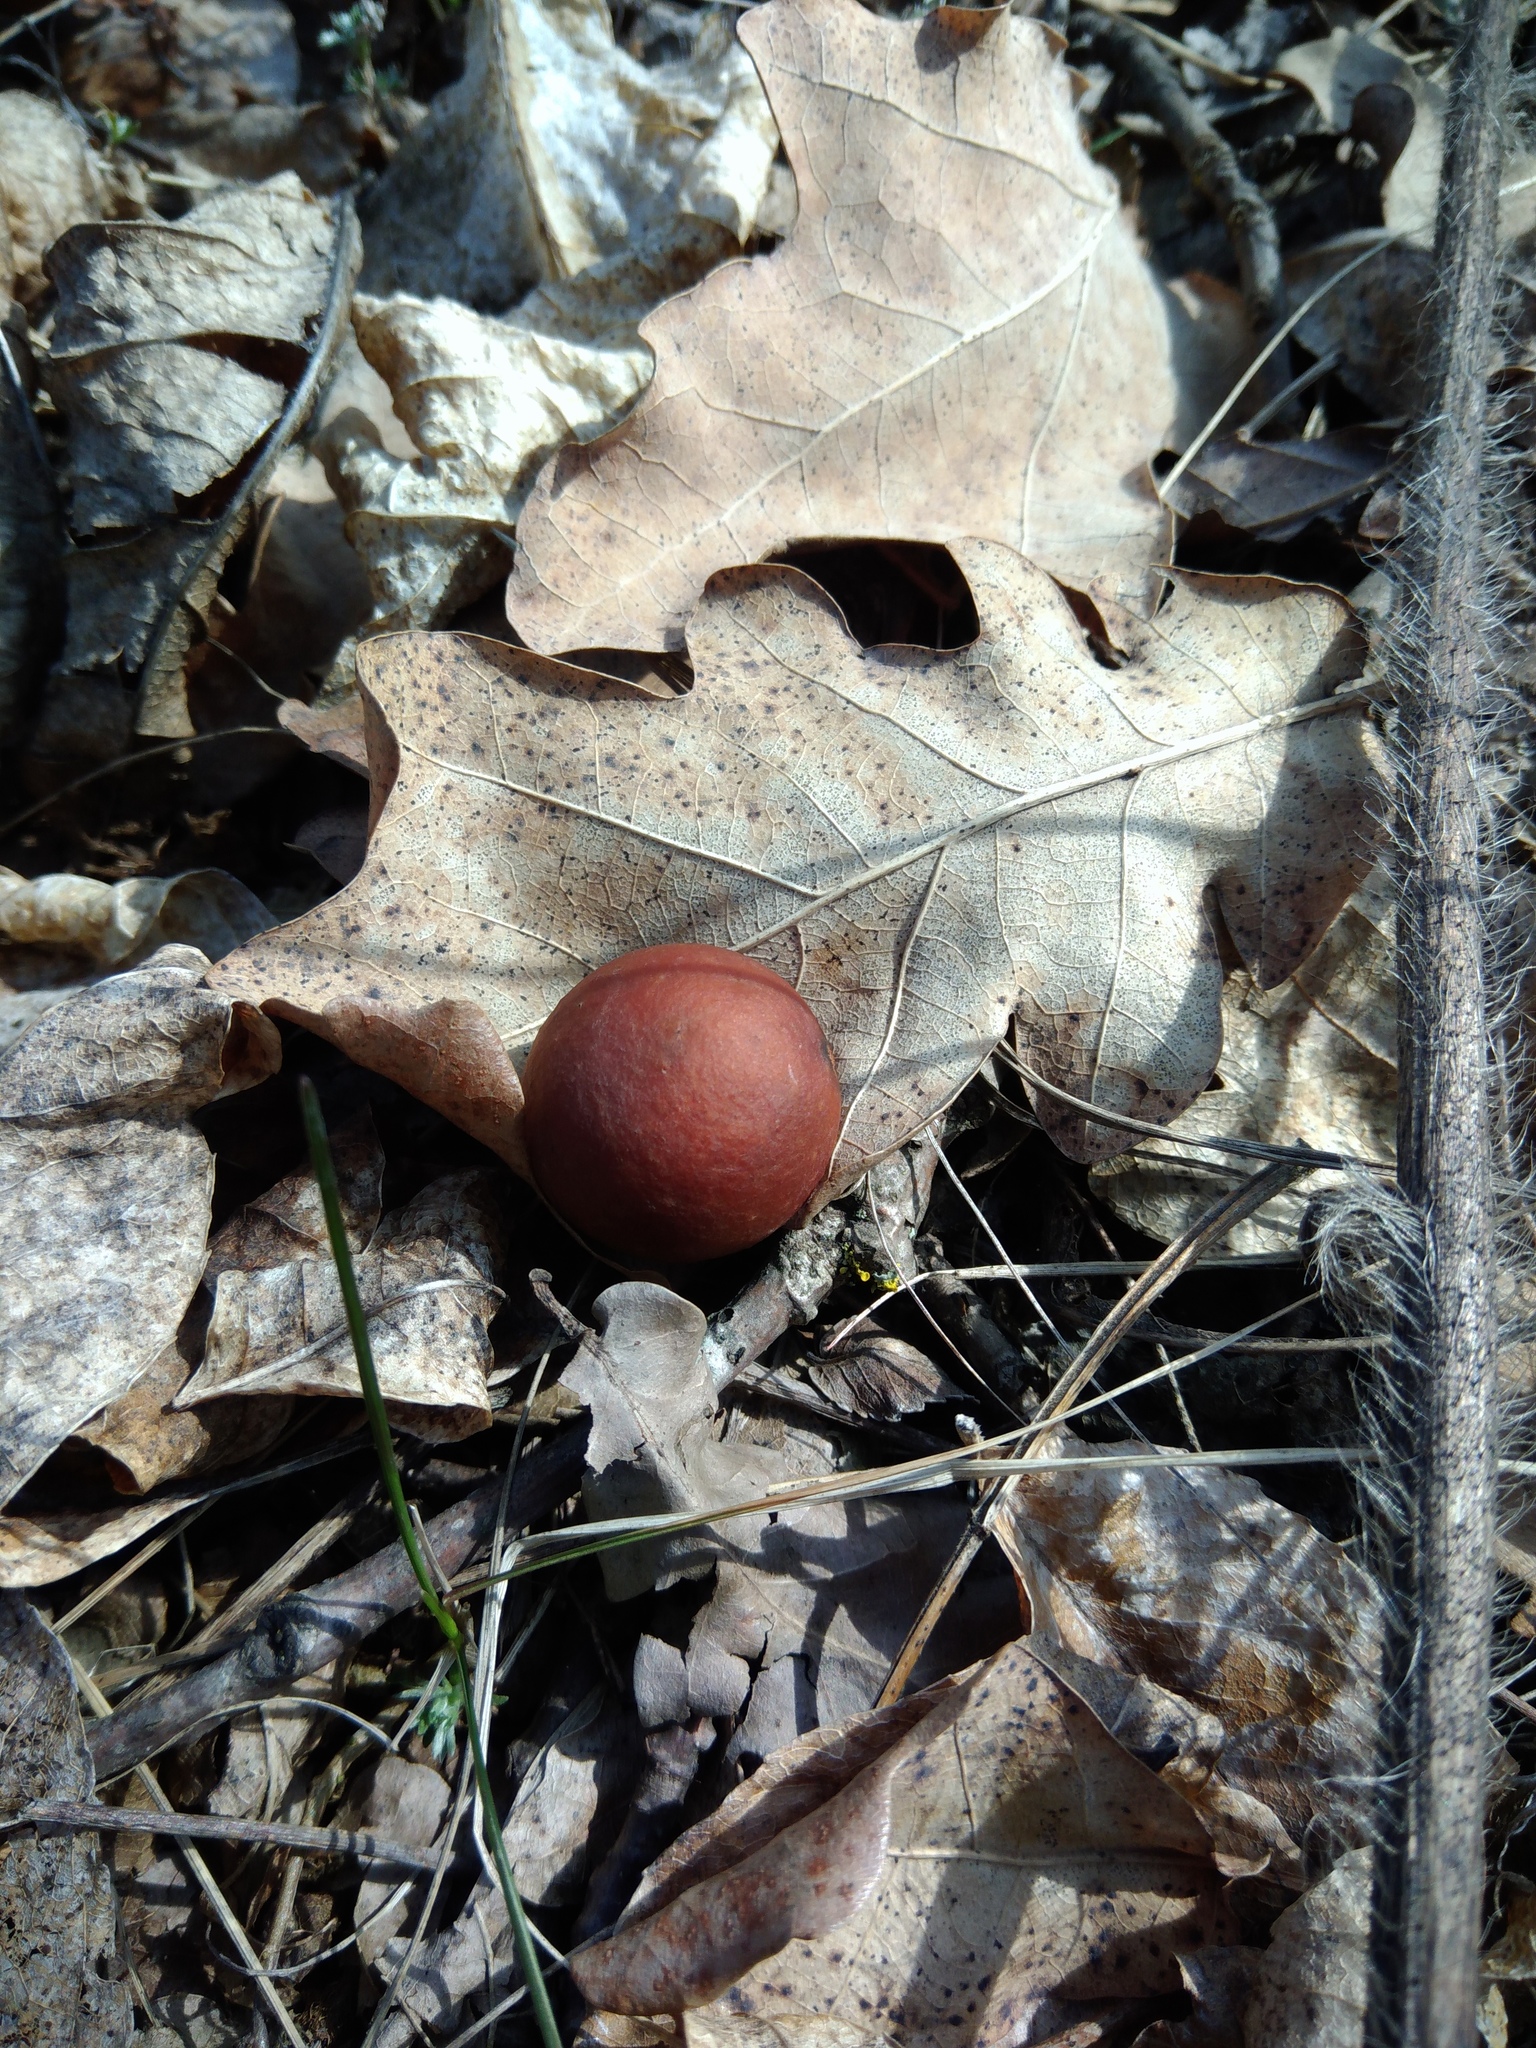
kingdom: Animalia
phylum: Arthropoda
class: Insecta
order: Hymenoptera
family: Cynipidae
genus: Cynips
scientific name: Cynips quercusfolii
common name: Cherry gall
